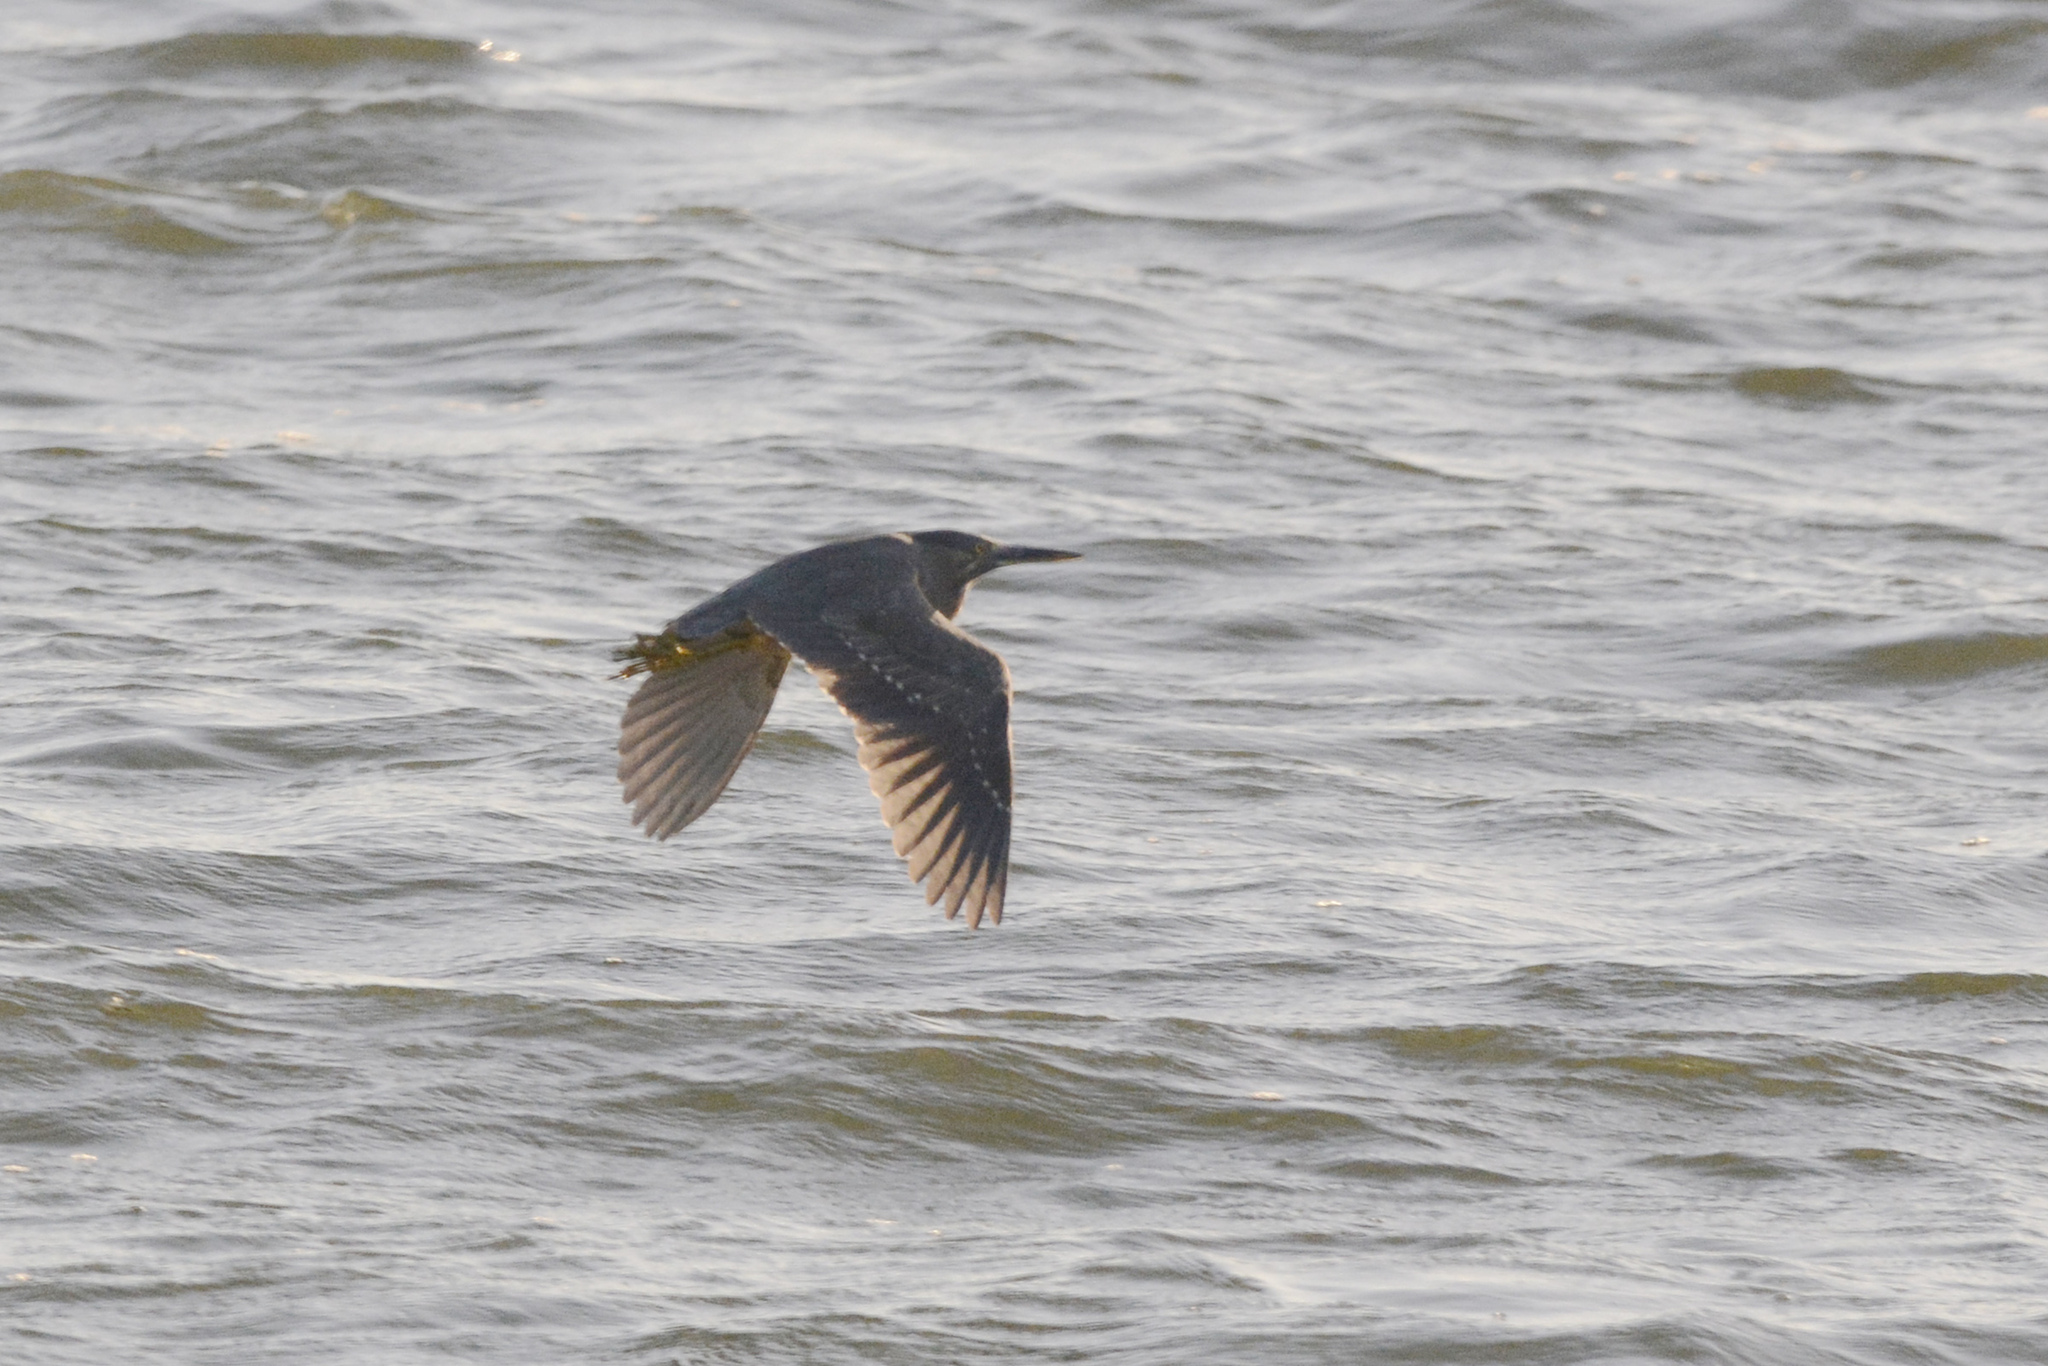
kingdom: Animalia
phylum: Chordata
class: Aves
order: Pelecaniformes
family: Ardeidae
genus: Butorides
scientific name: Butorides striata
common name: Striated heron
